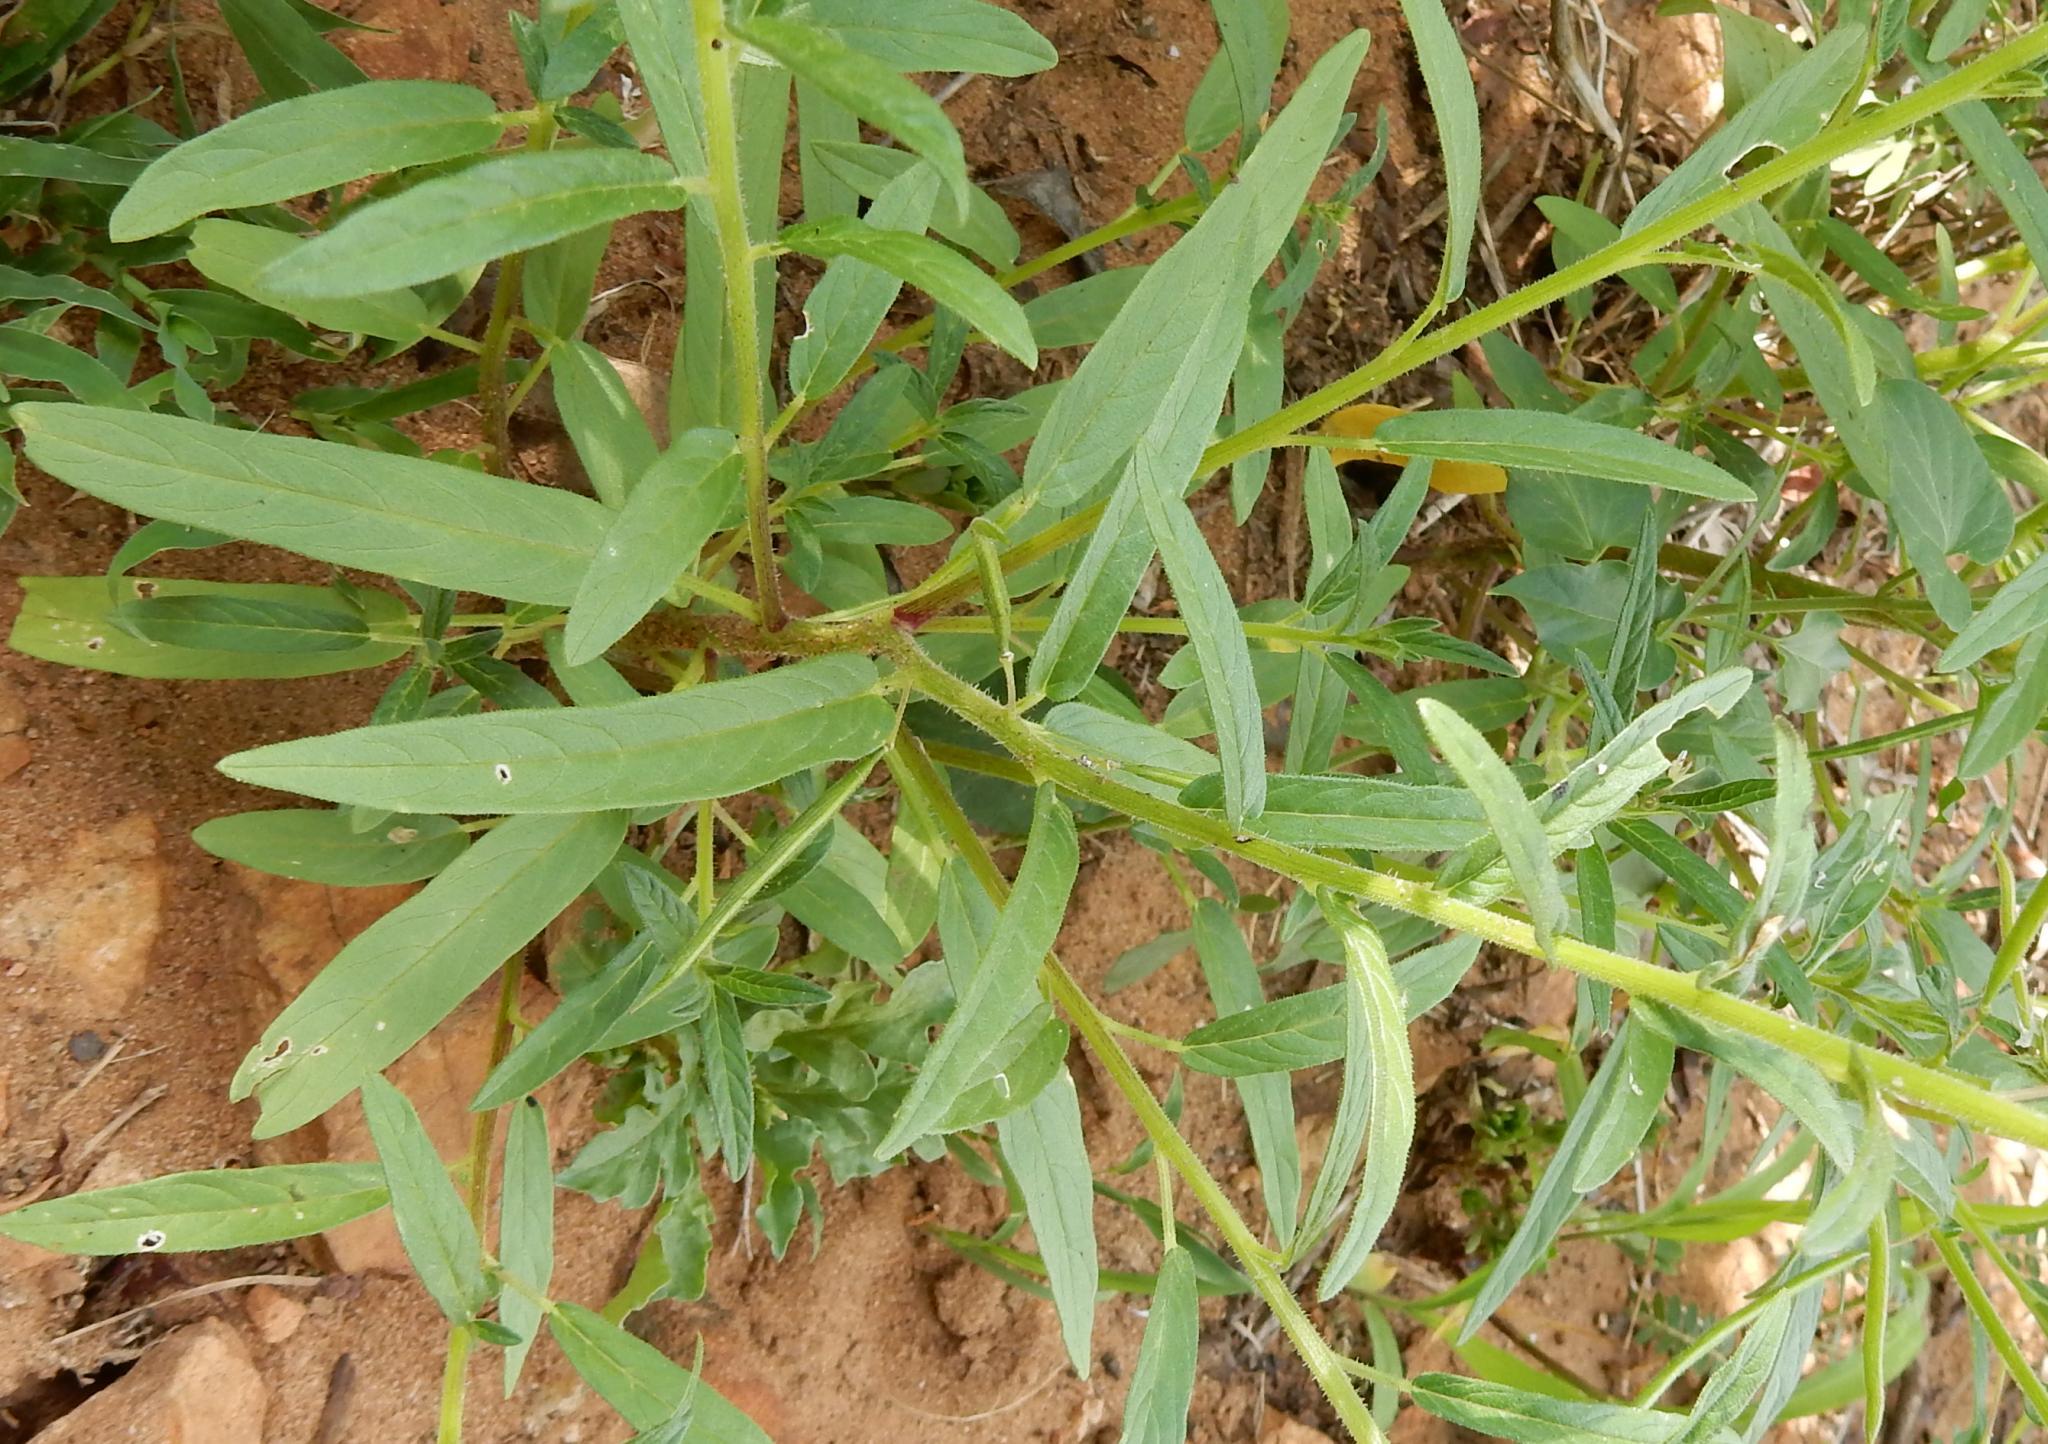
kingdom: Plantae
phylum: Tracheophyta
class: Magnoliopsida
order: Brassicales
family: Cleomaceae
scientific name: Cleomaceae
